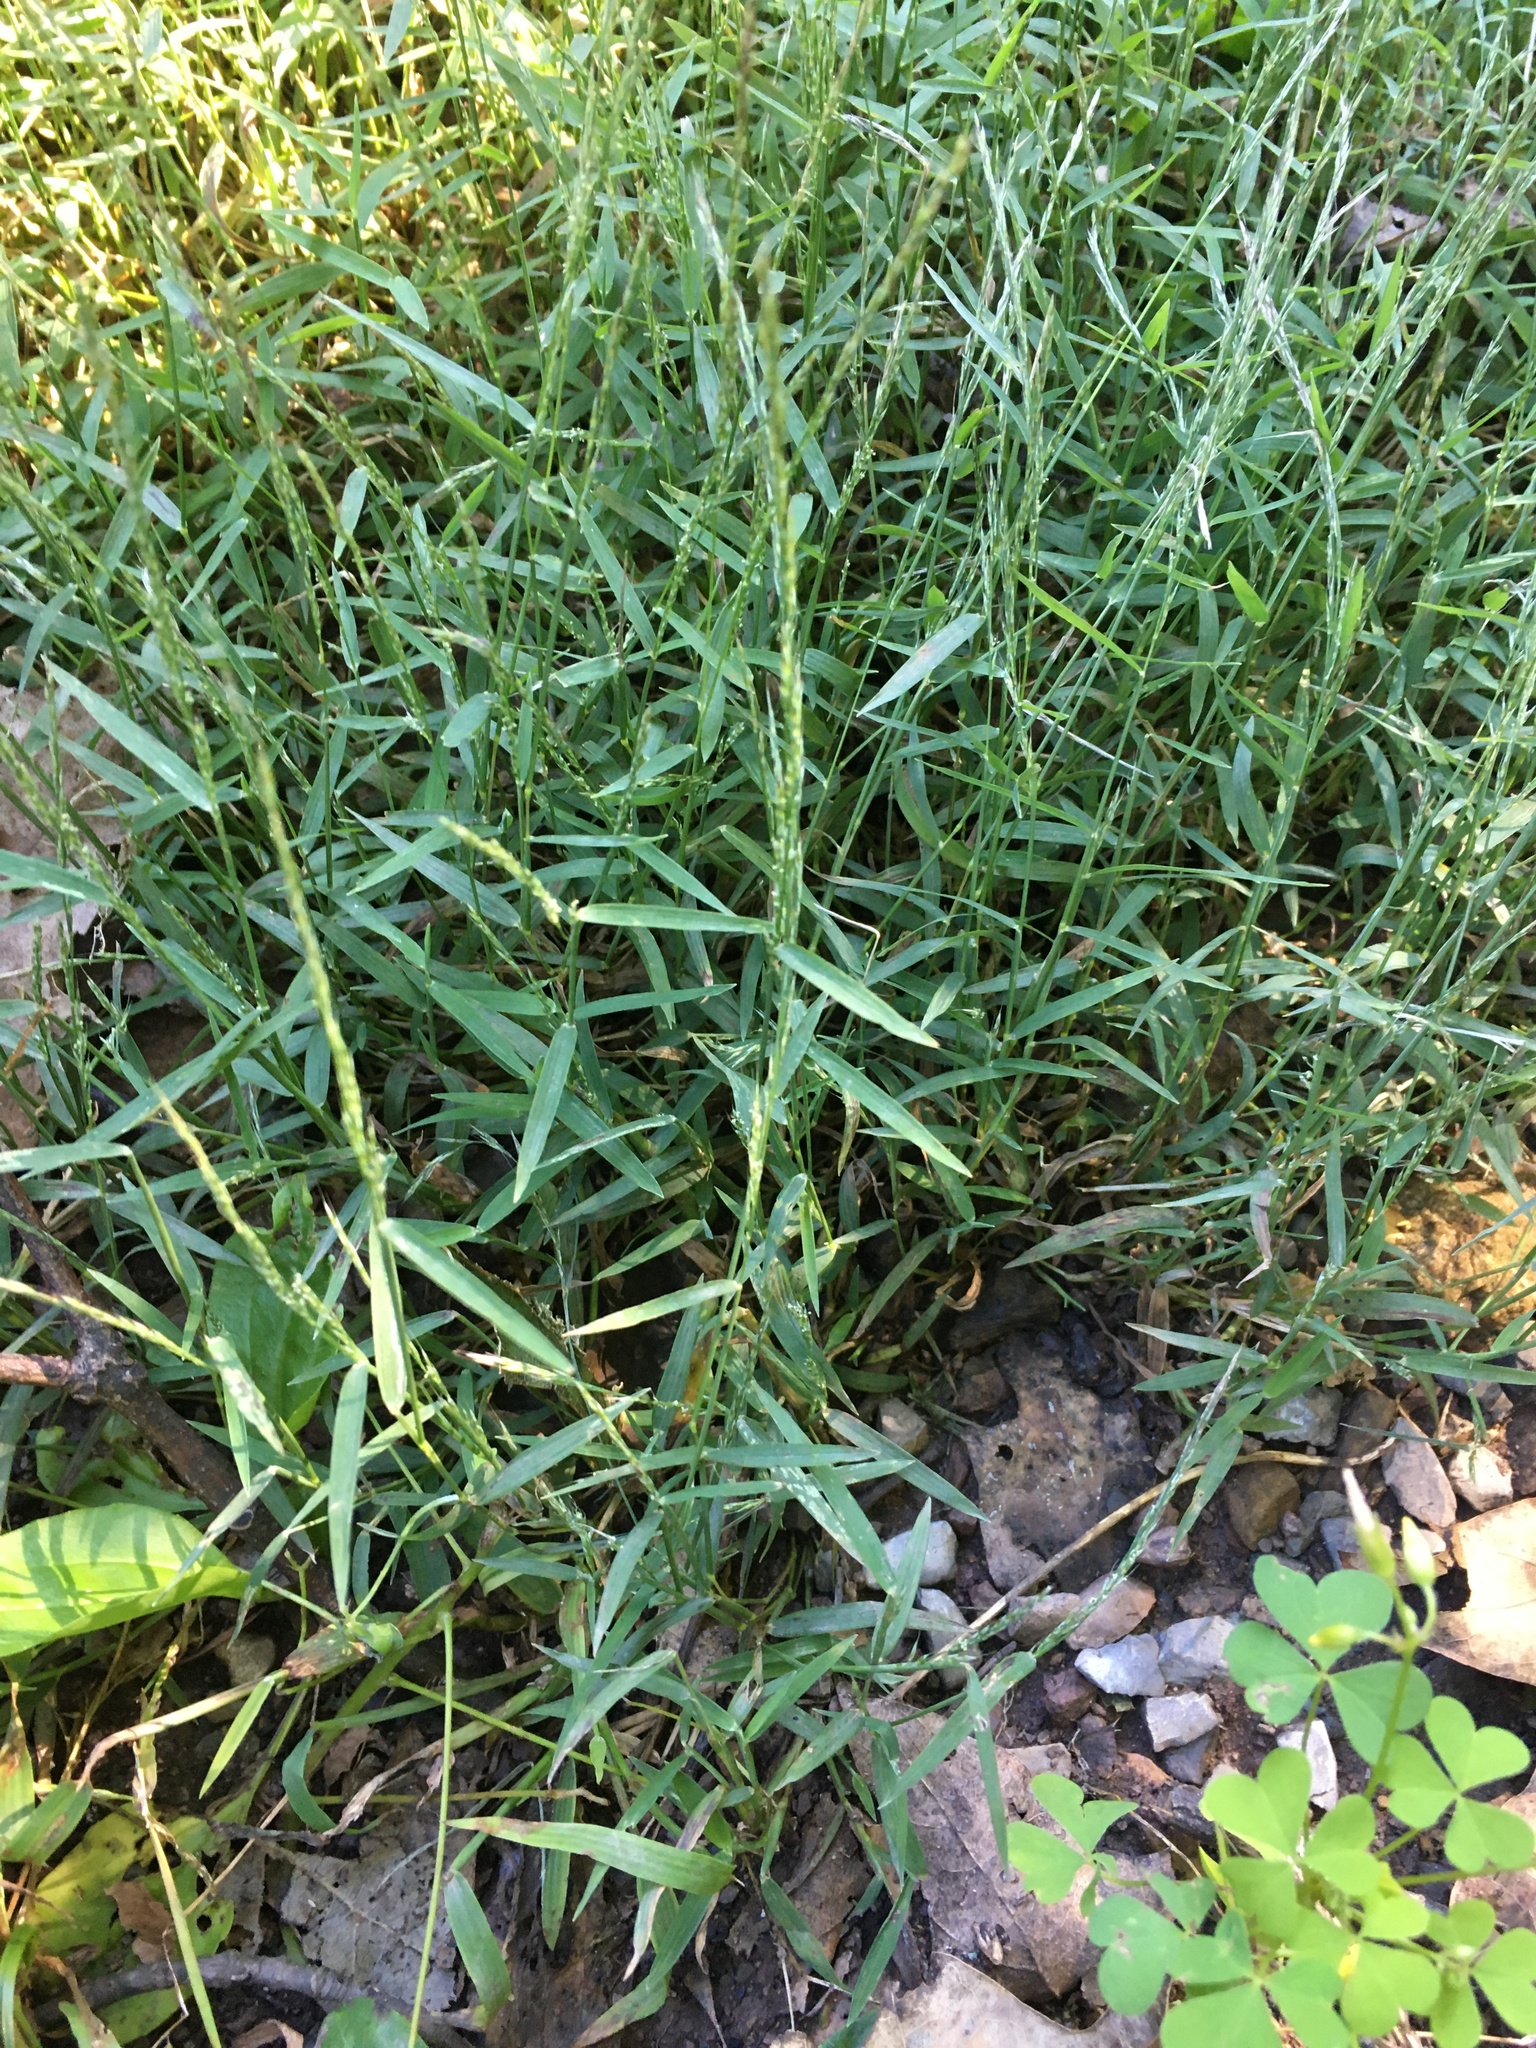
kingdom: Plantae
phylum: Tracheophyta
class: Liliopsida
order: Poales
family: Poaceae
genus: Muhlenbergia
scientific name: Muhlenbergia schreberi
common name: Nimblewill
